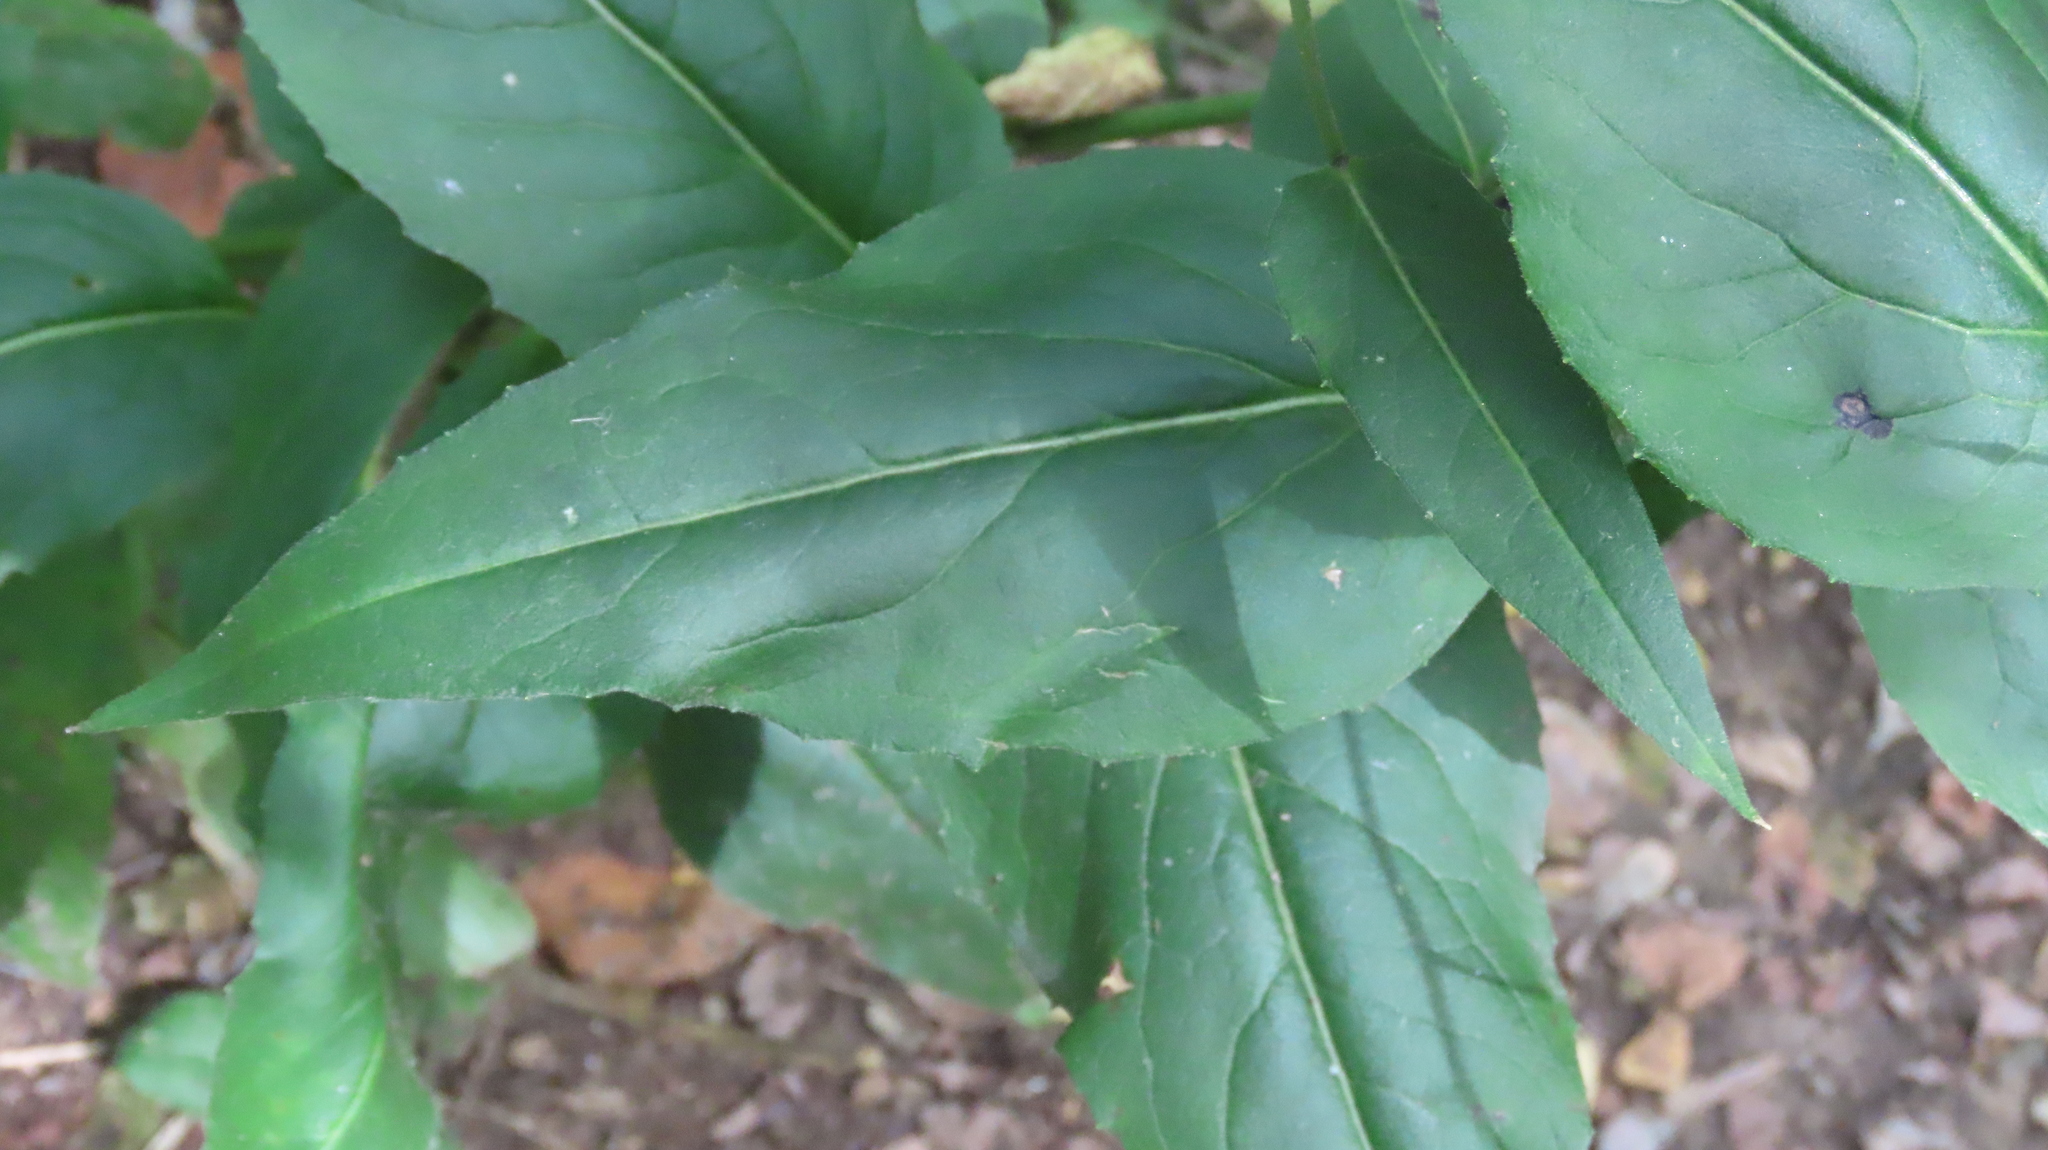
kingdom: Plantae
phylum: Tracheophyta
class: Magnoliopsida
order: Brassicales
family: Brassicaceae
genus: Hesperis
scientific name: Hesperis matronalis
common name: Dame's-violet
